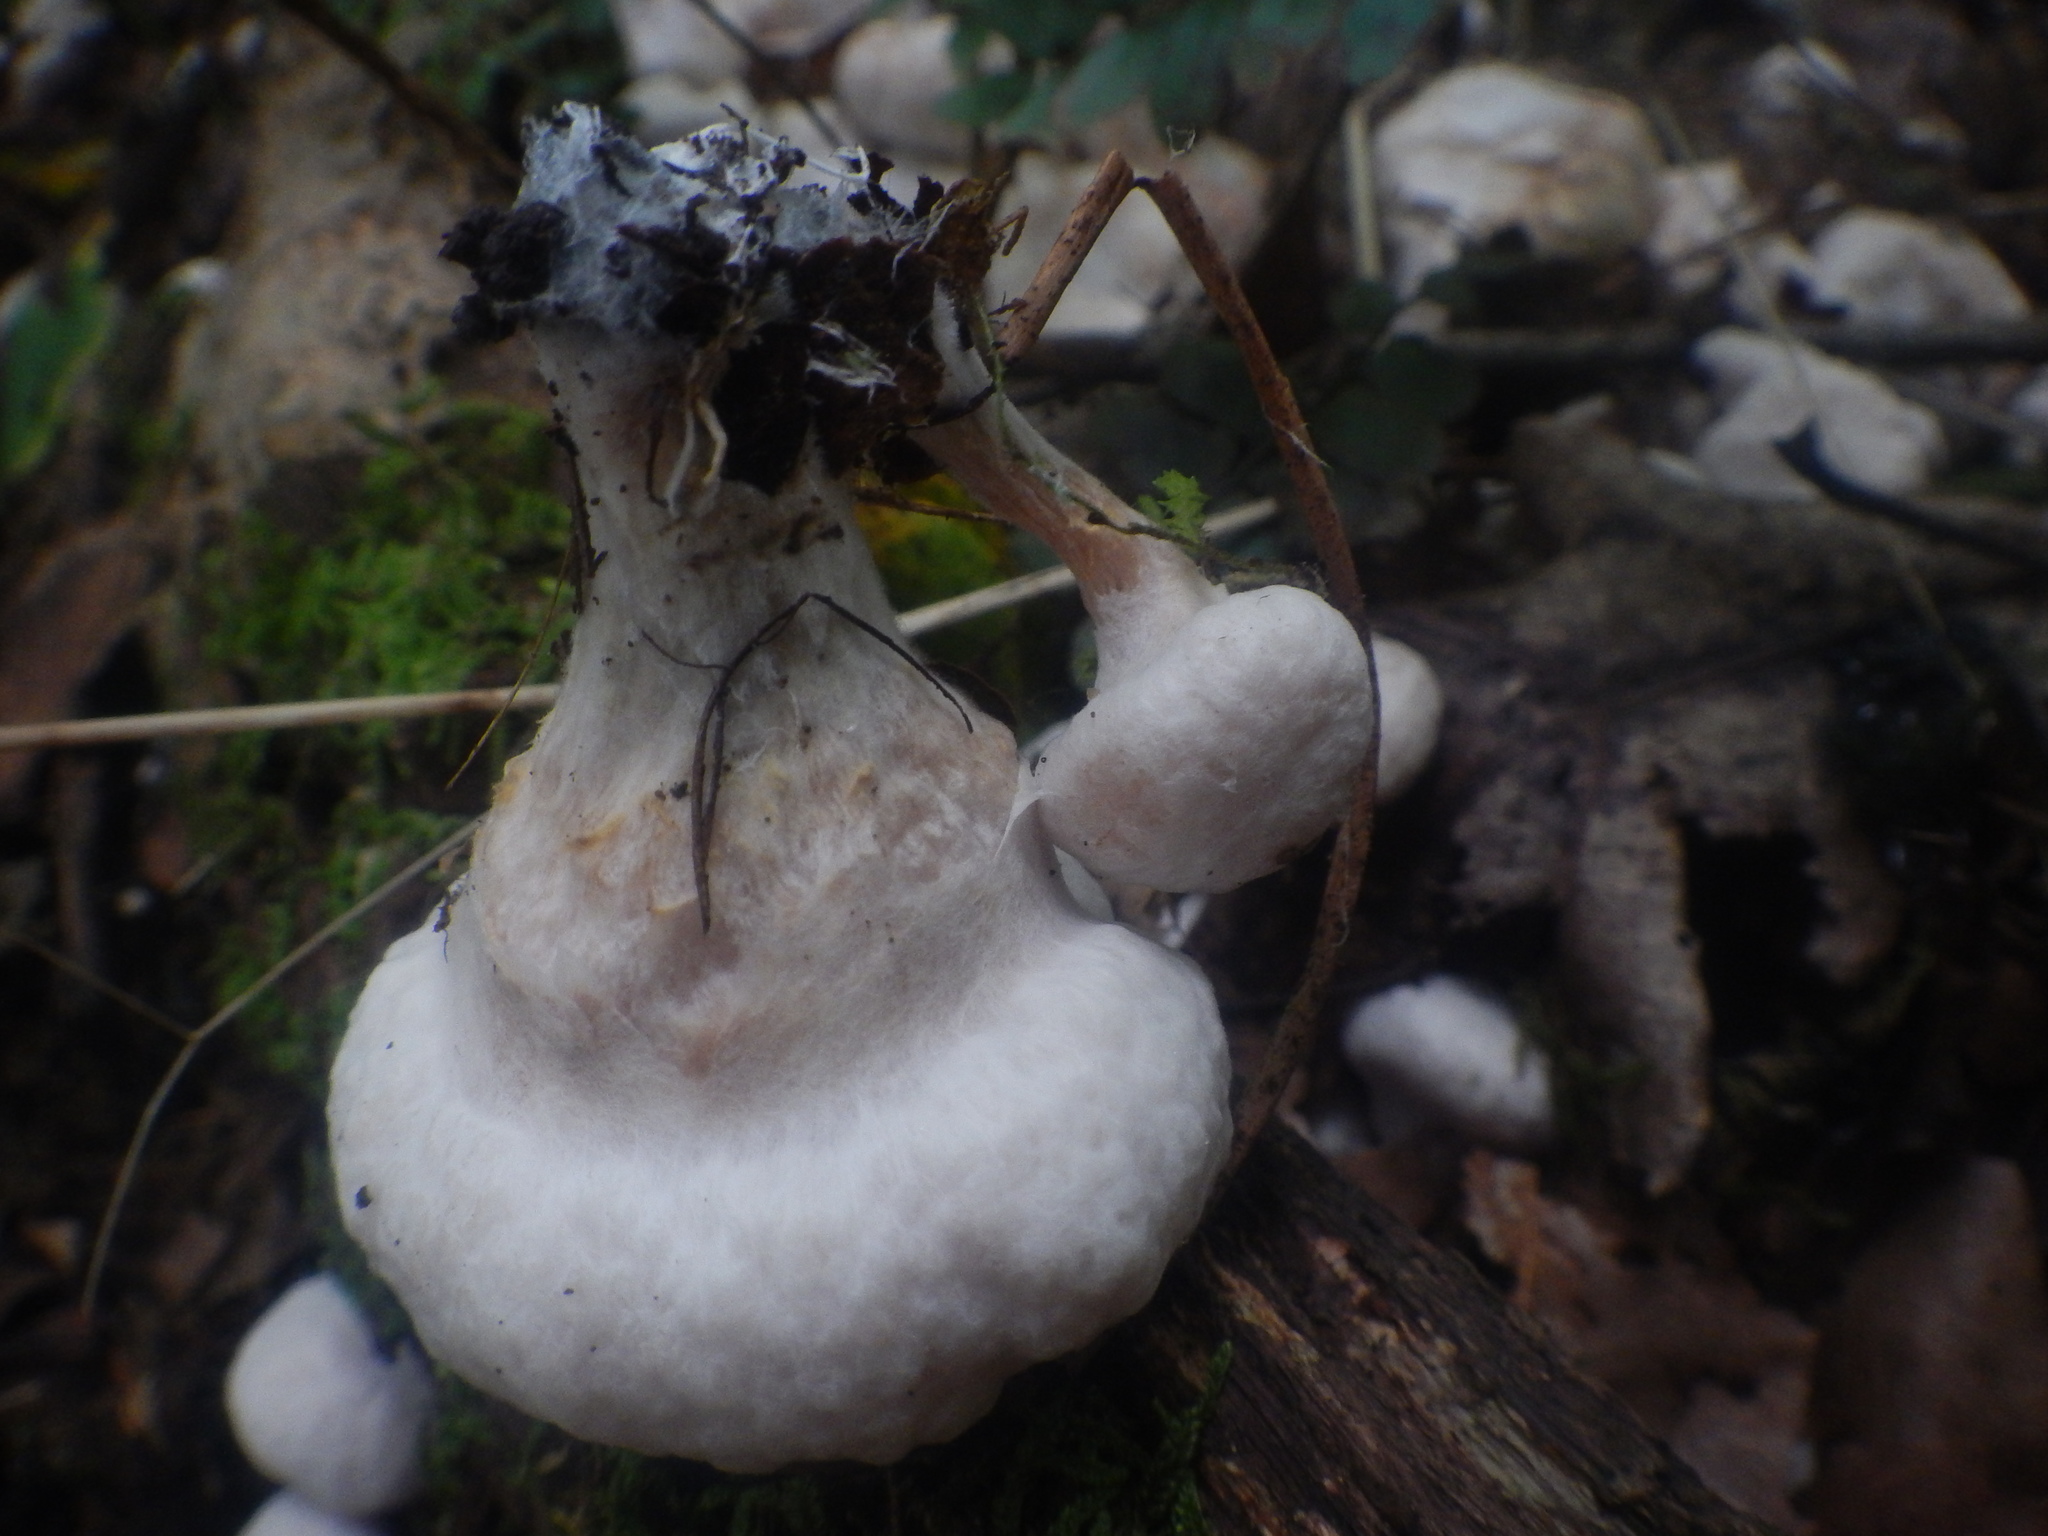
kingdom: Fungi
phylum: Basidiomycota
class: Agaricomycetes
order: Agaricales
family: Entolomataceae
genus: Entoloma
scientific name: Entoloma abortivum
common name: Aborted entoloma
